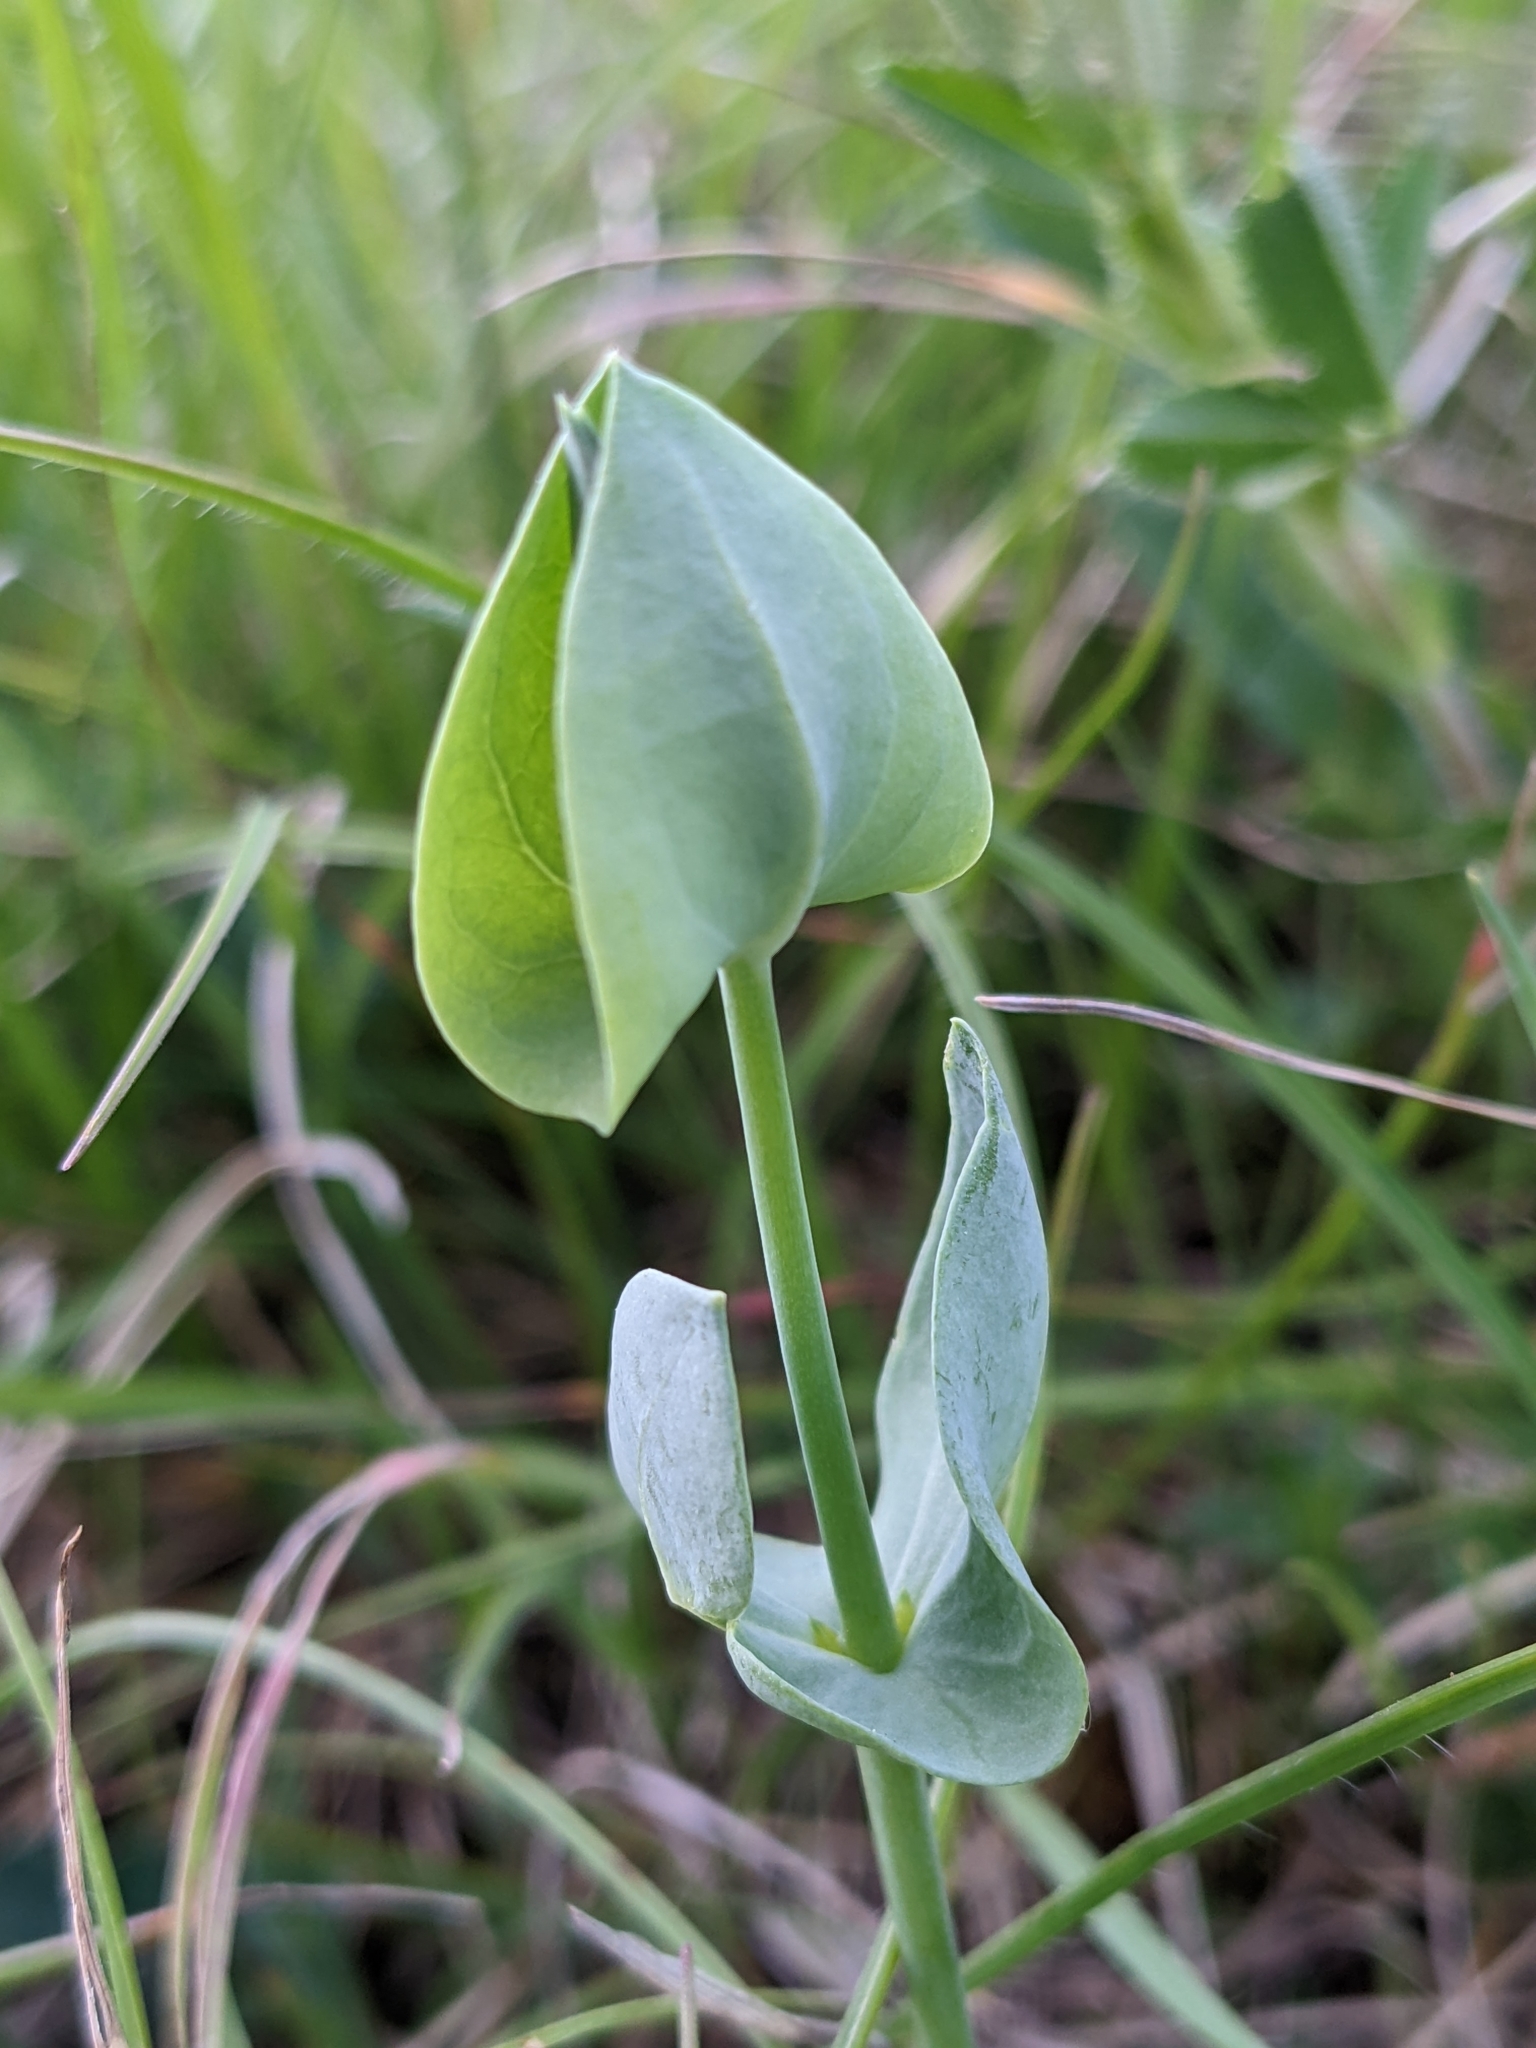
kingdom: Plantae
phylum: Tracheophyta
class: Magnoliopsida
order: Gentianales
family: Gentianaceae
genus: Blackstonia
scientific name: Blackstonia perfoliata
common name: Yellow-wort
